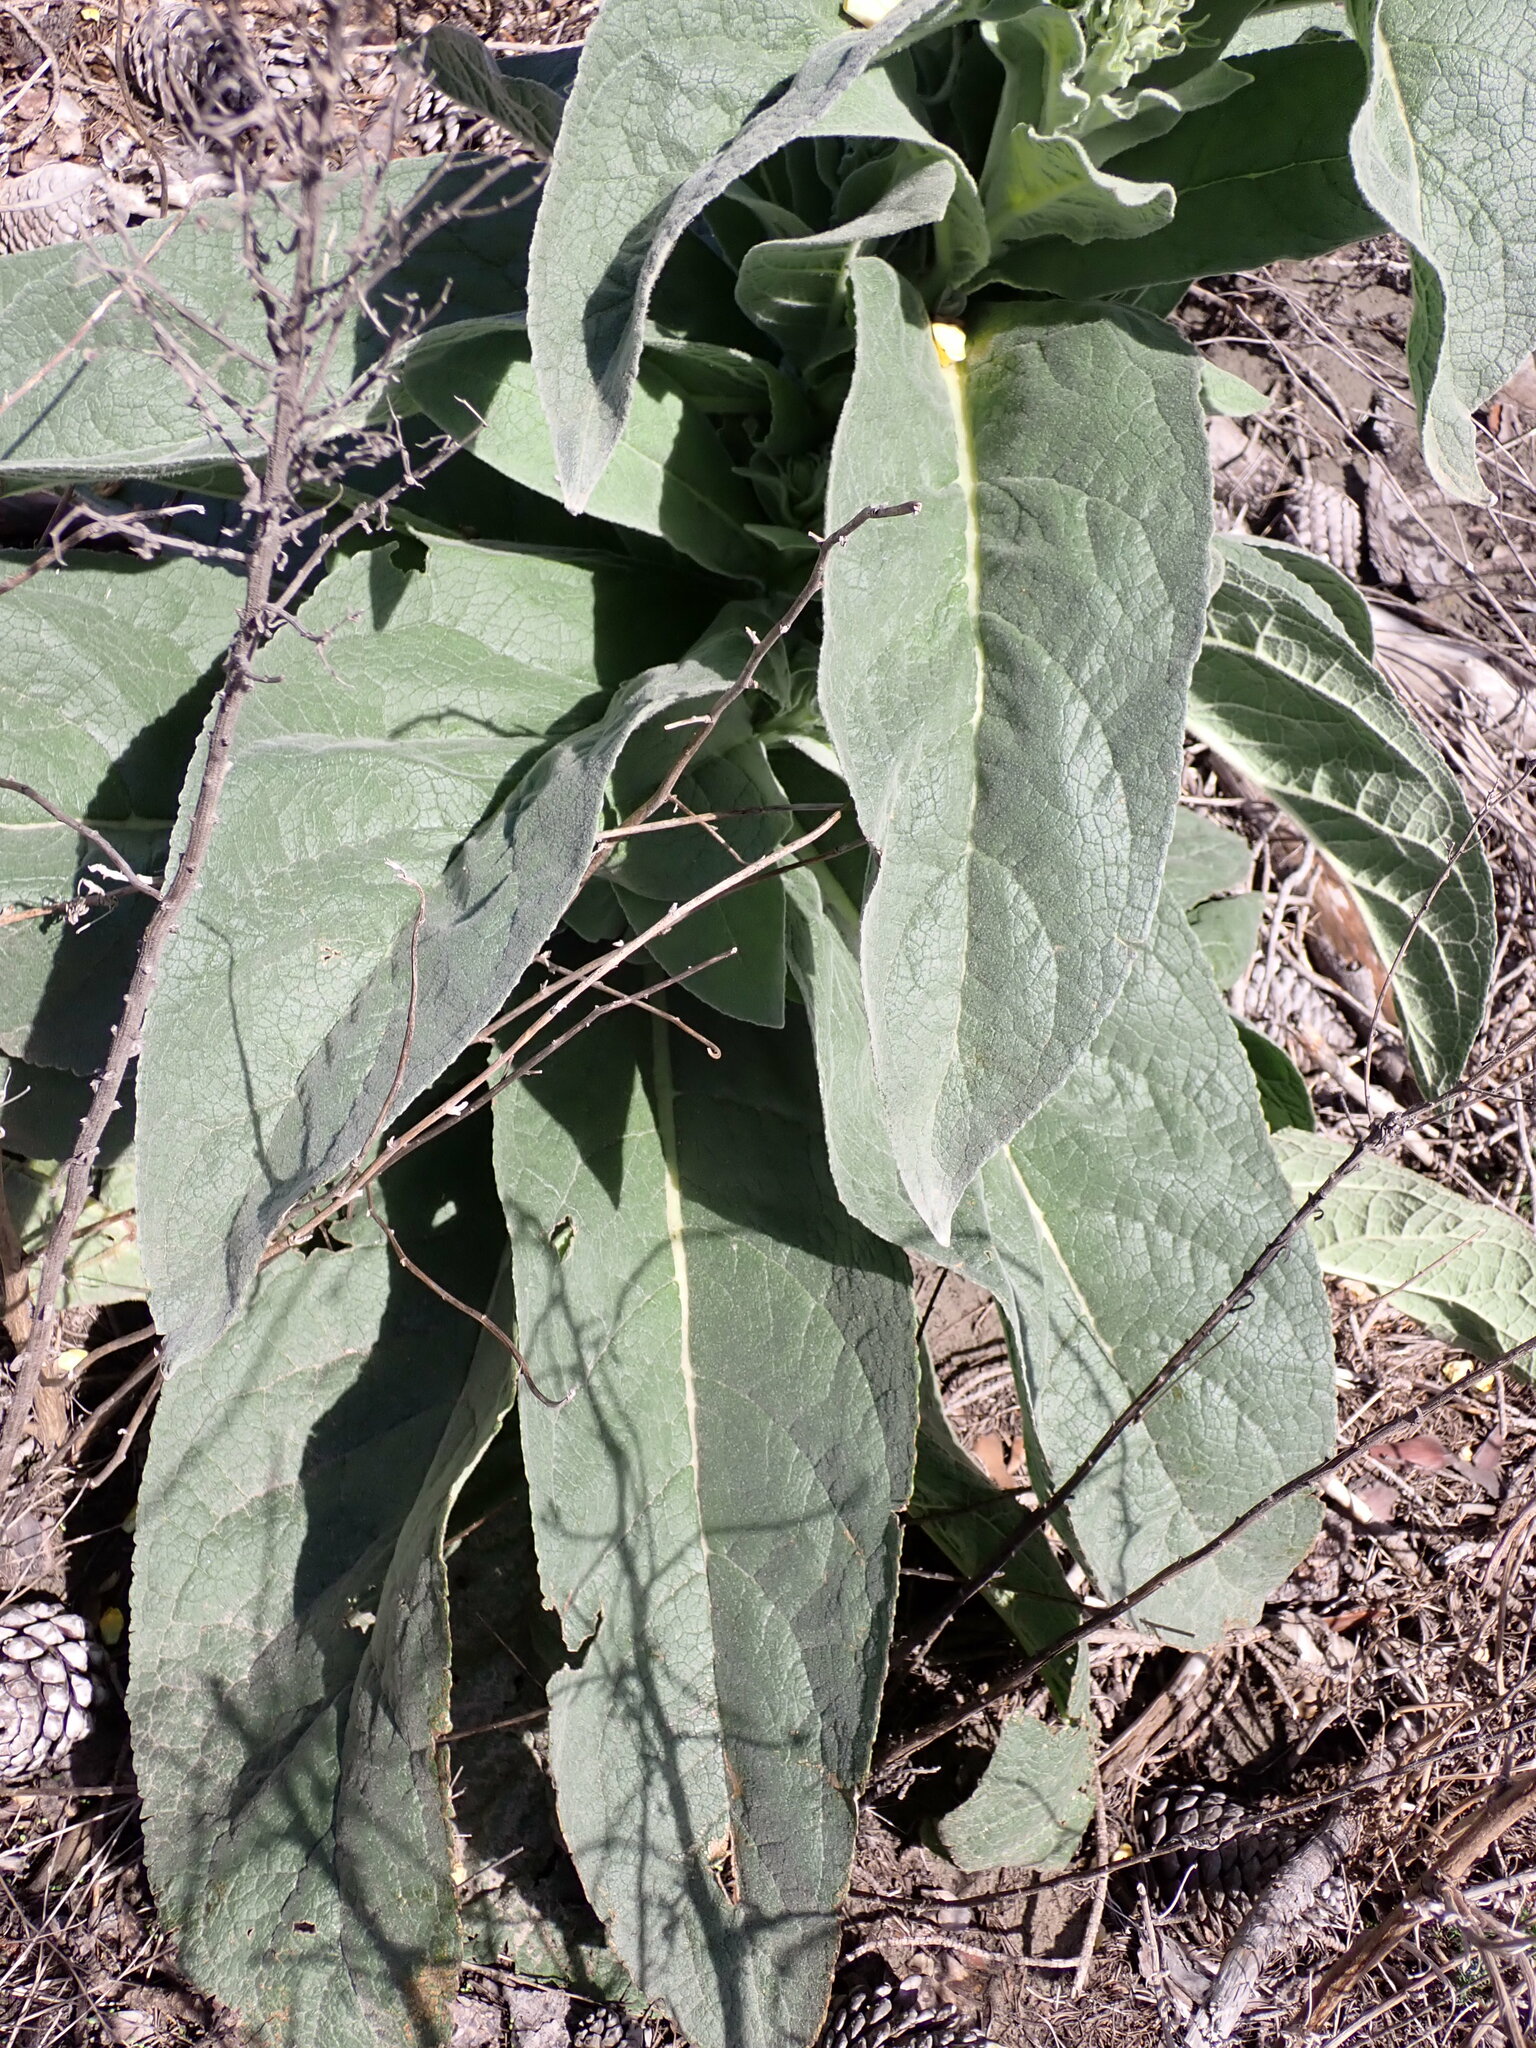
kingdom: Plantae
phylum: Tracheophyta
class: Magnoliopsida
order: Lamiales
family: Scrophulariaceae
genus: Verbascum
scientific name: Verbascum thapsus
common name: Common mullein
